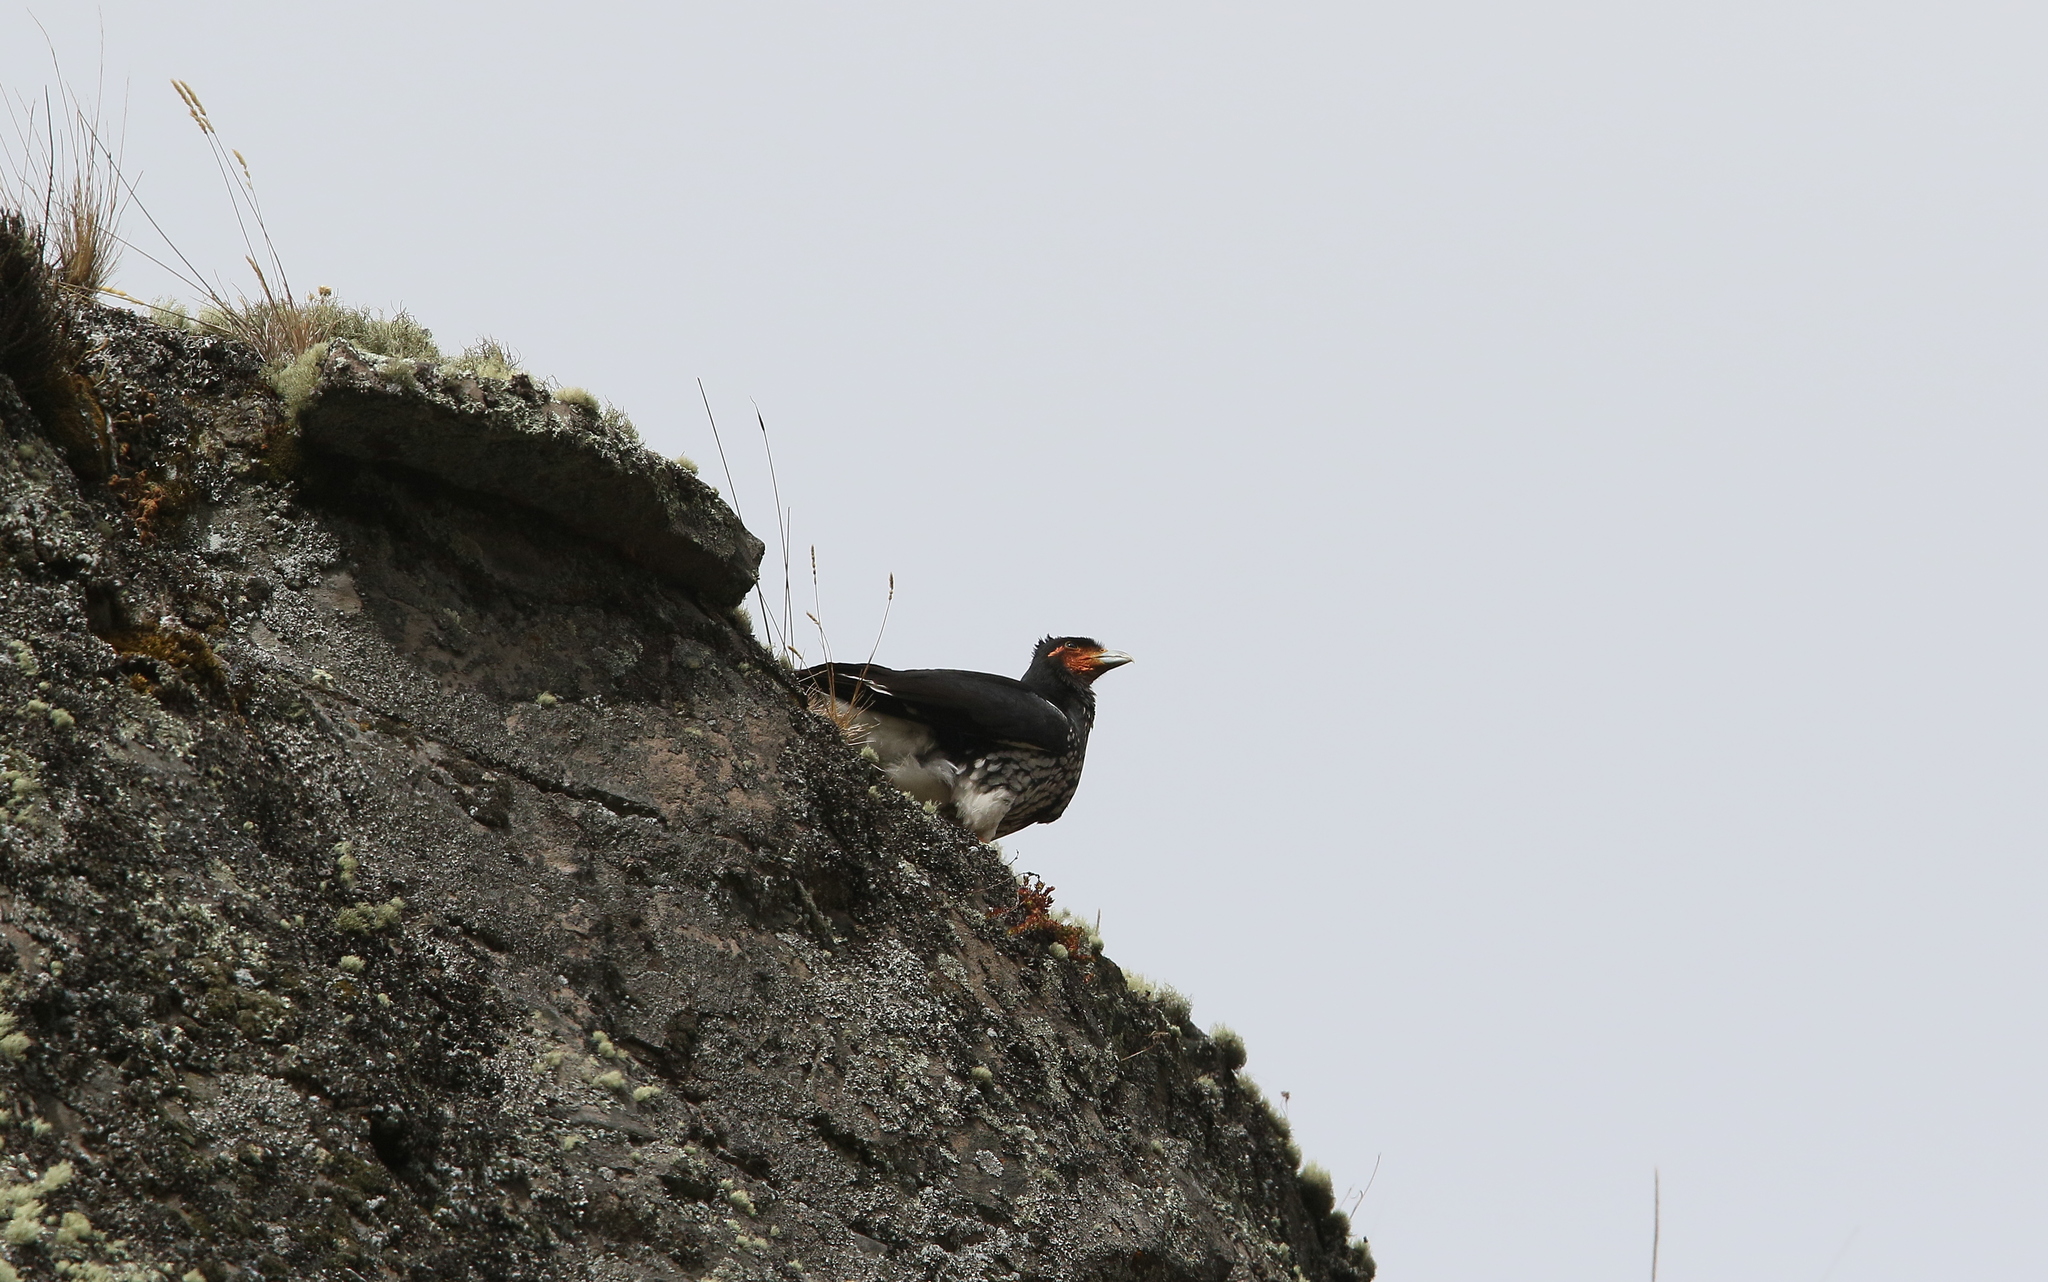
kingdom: Animalia
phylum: Chordata
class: Aves
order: Falconiformes
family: Falconidae
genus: Daptrius
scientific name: Daptrius
